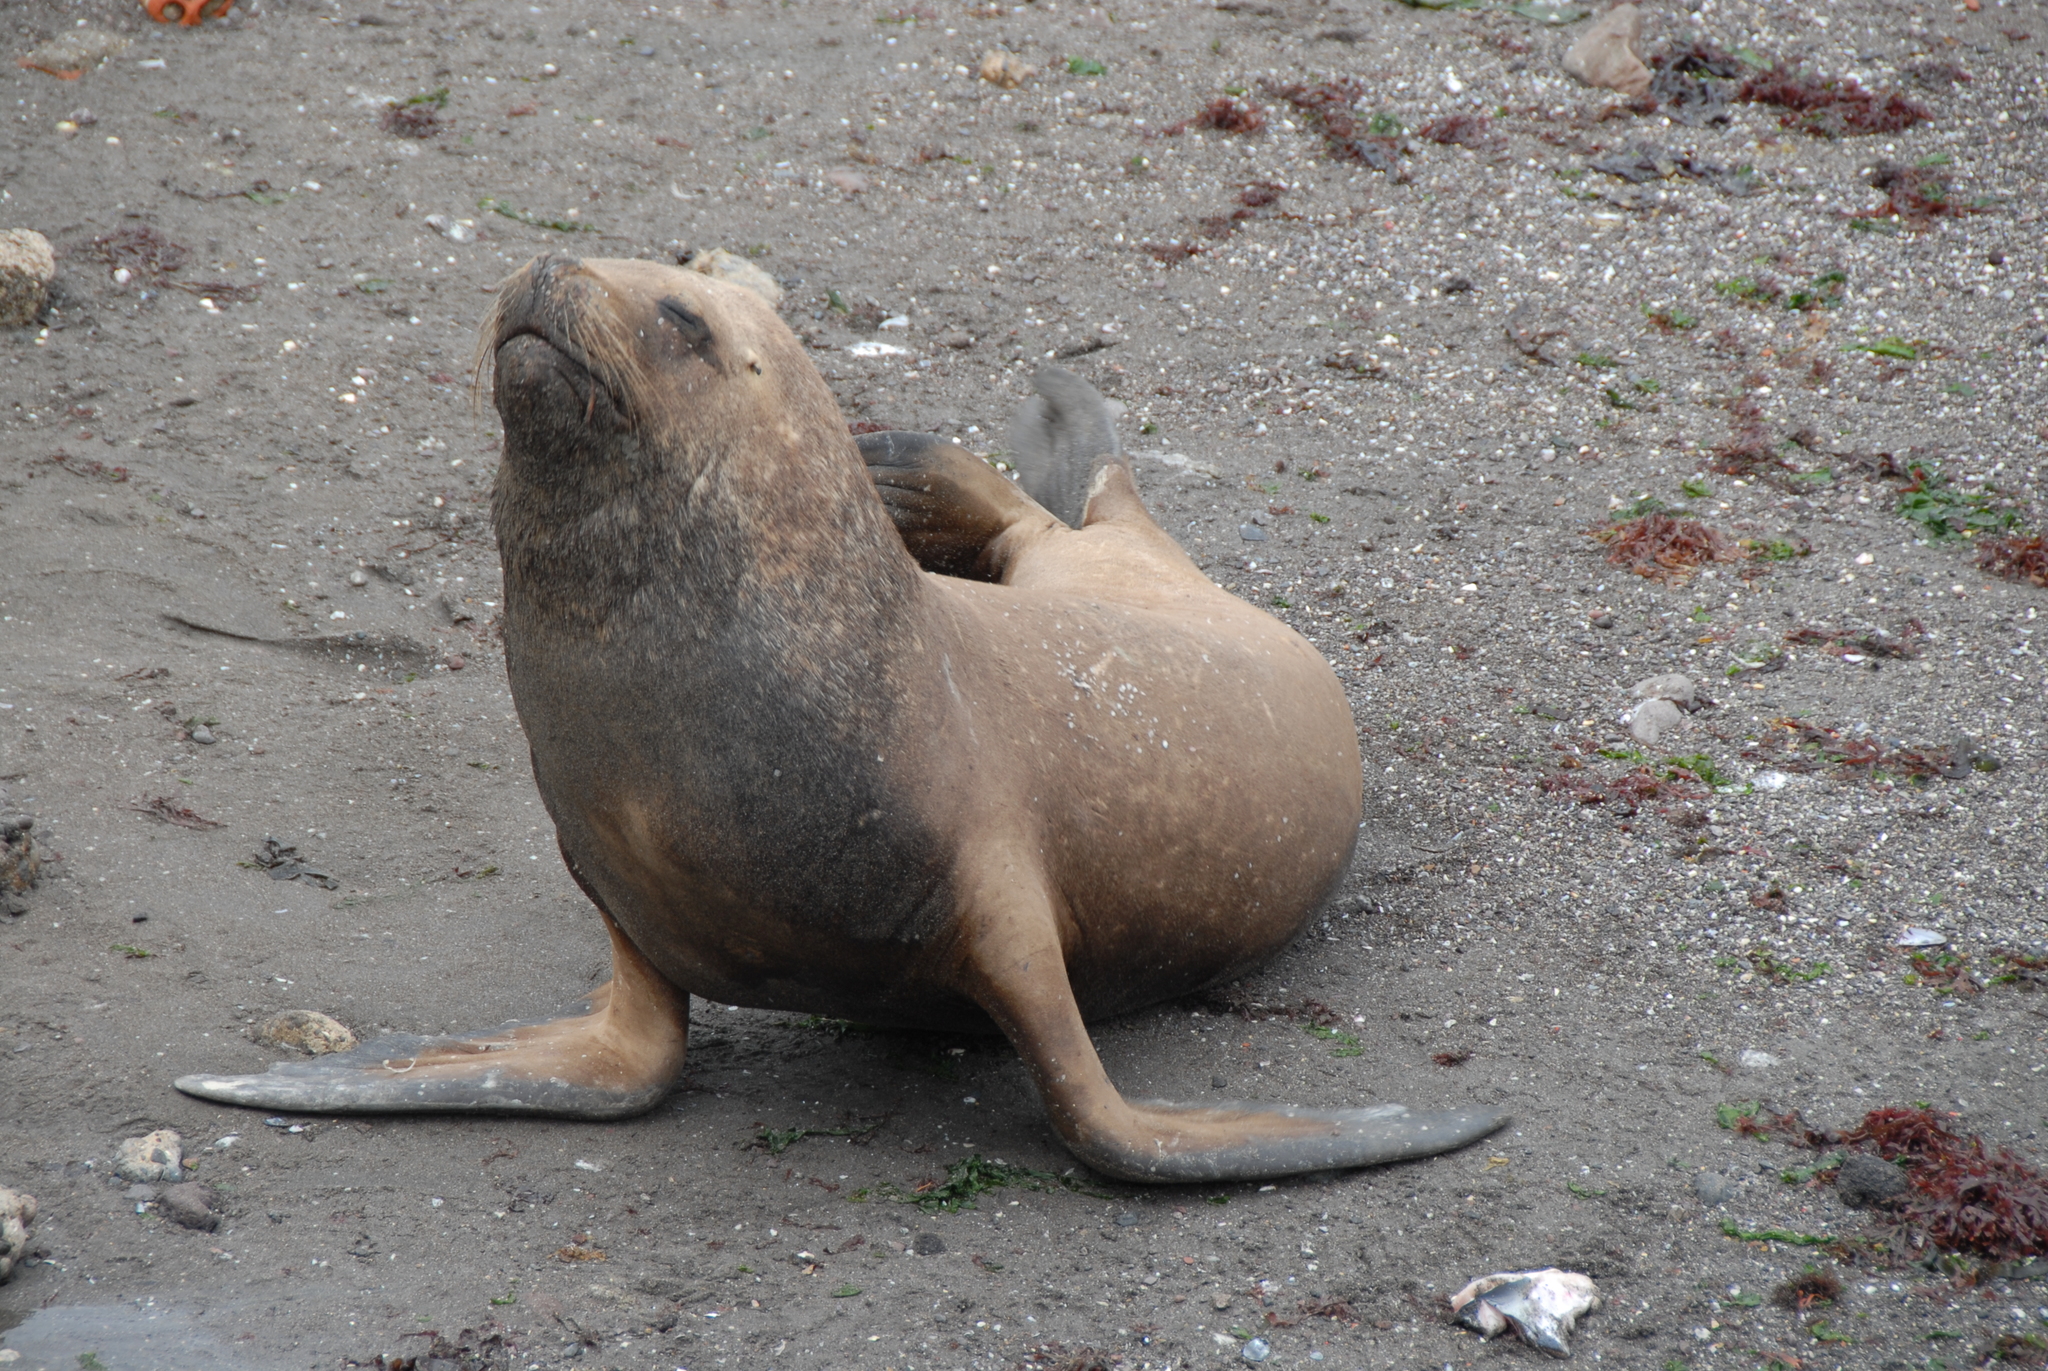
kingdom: Animalia
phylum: Chordata
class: Mammalia
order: Carnivora
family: Otariidae
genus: Otaria
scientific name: Otaria byronia
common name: South american sea lion
